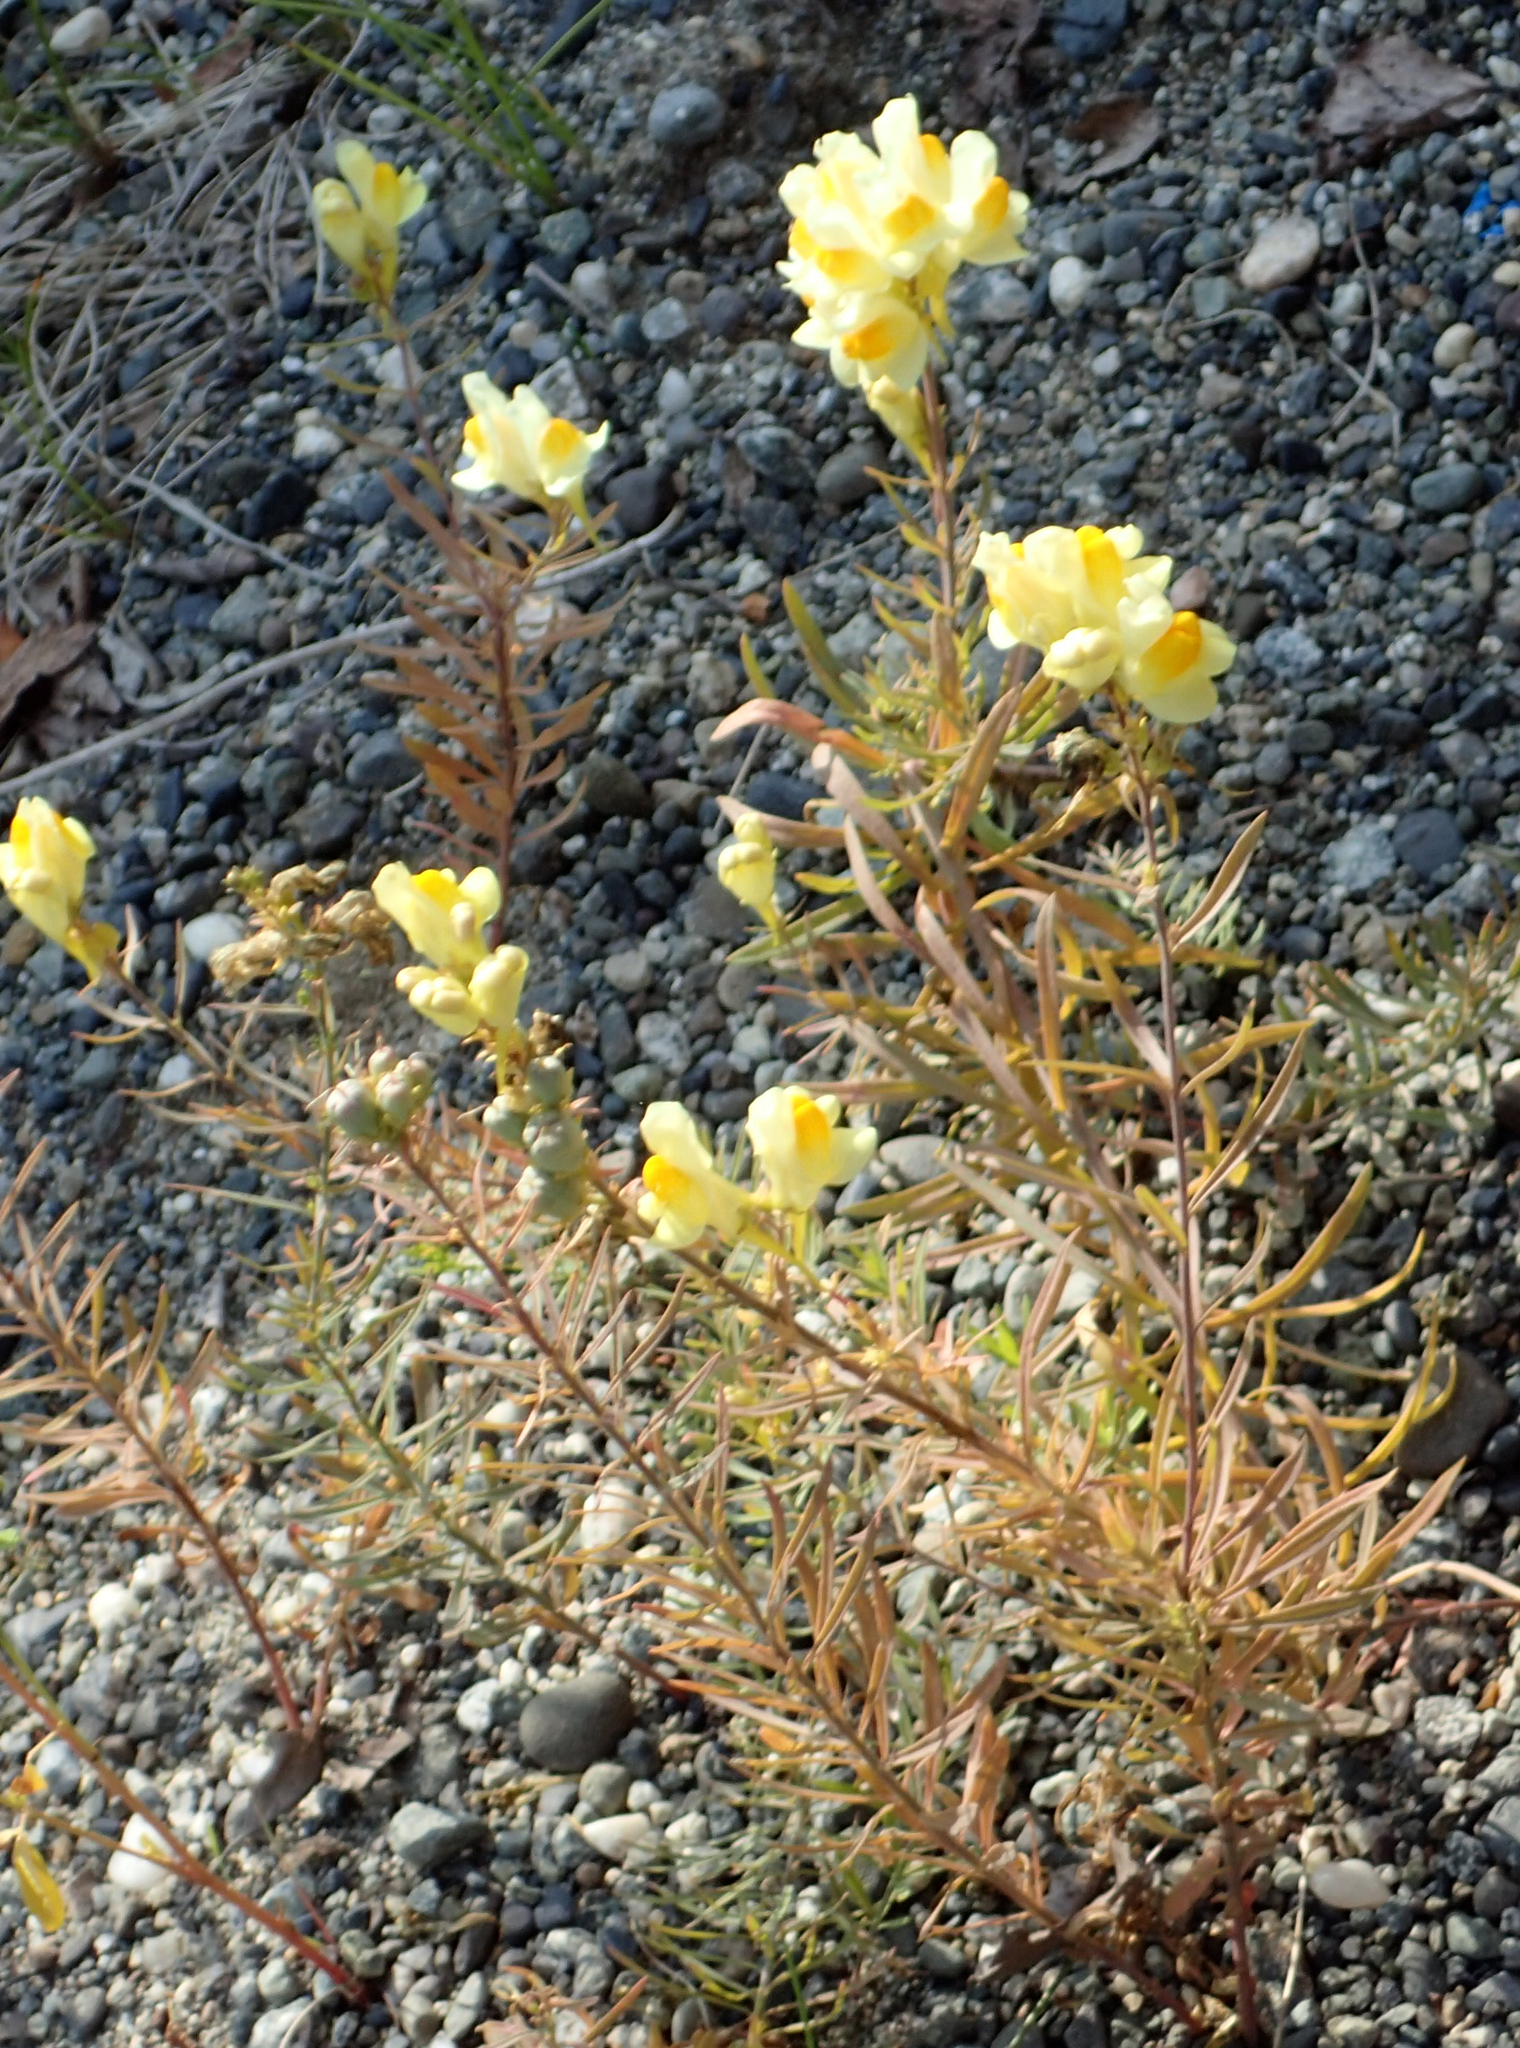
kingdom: Plantae
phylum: Tracheophyta
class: Magnoliopsida
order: Lamiales
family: Plantaginaceae
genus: Linaria
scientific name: Linaria vulgaris
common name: Butter and eggs
